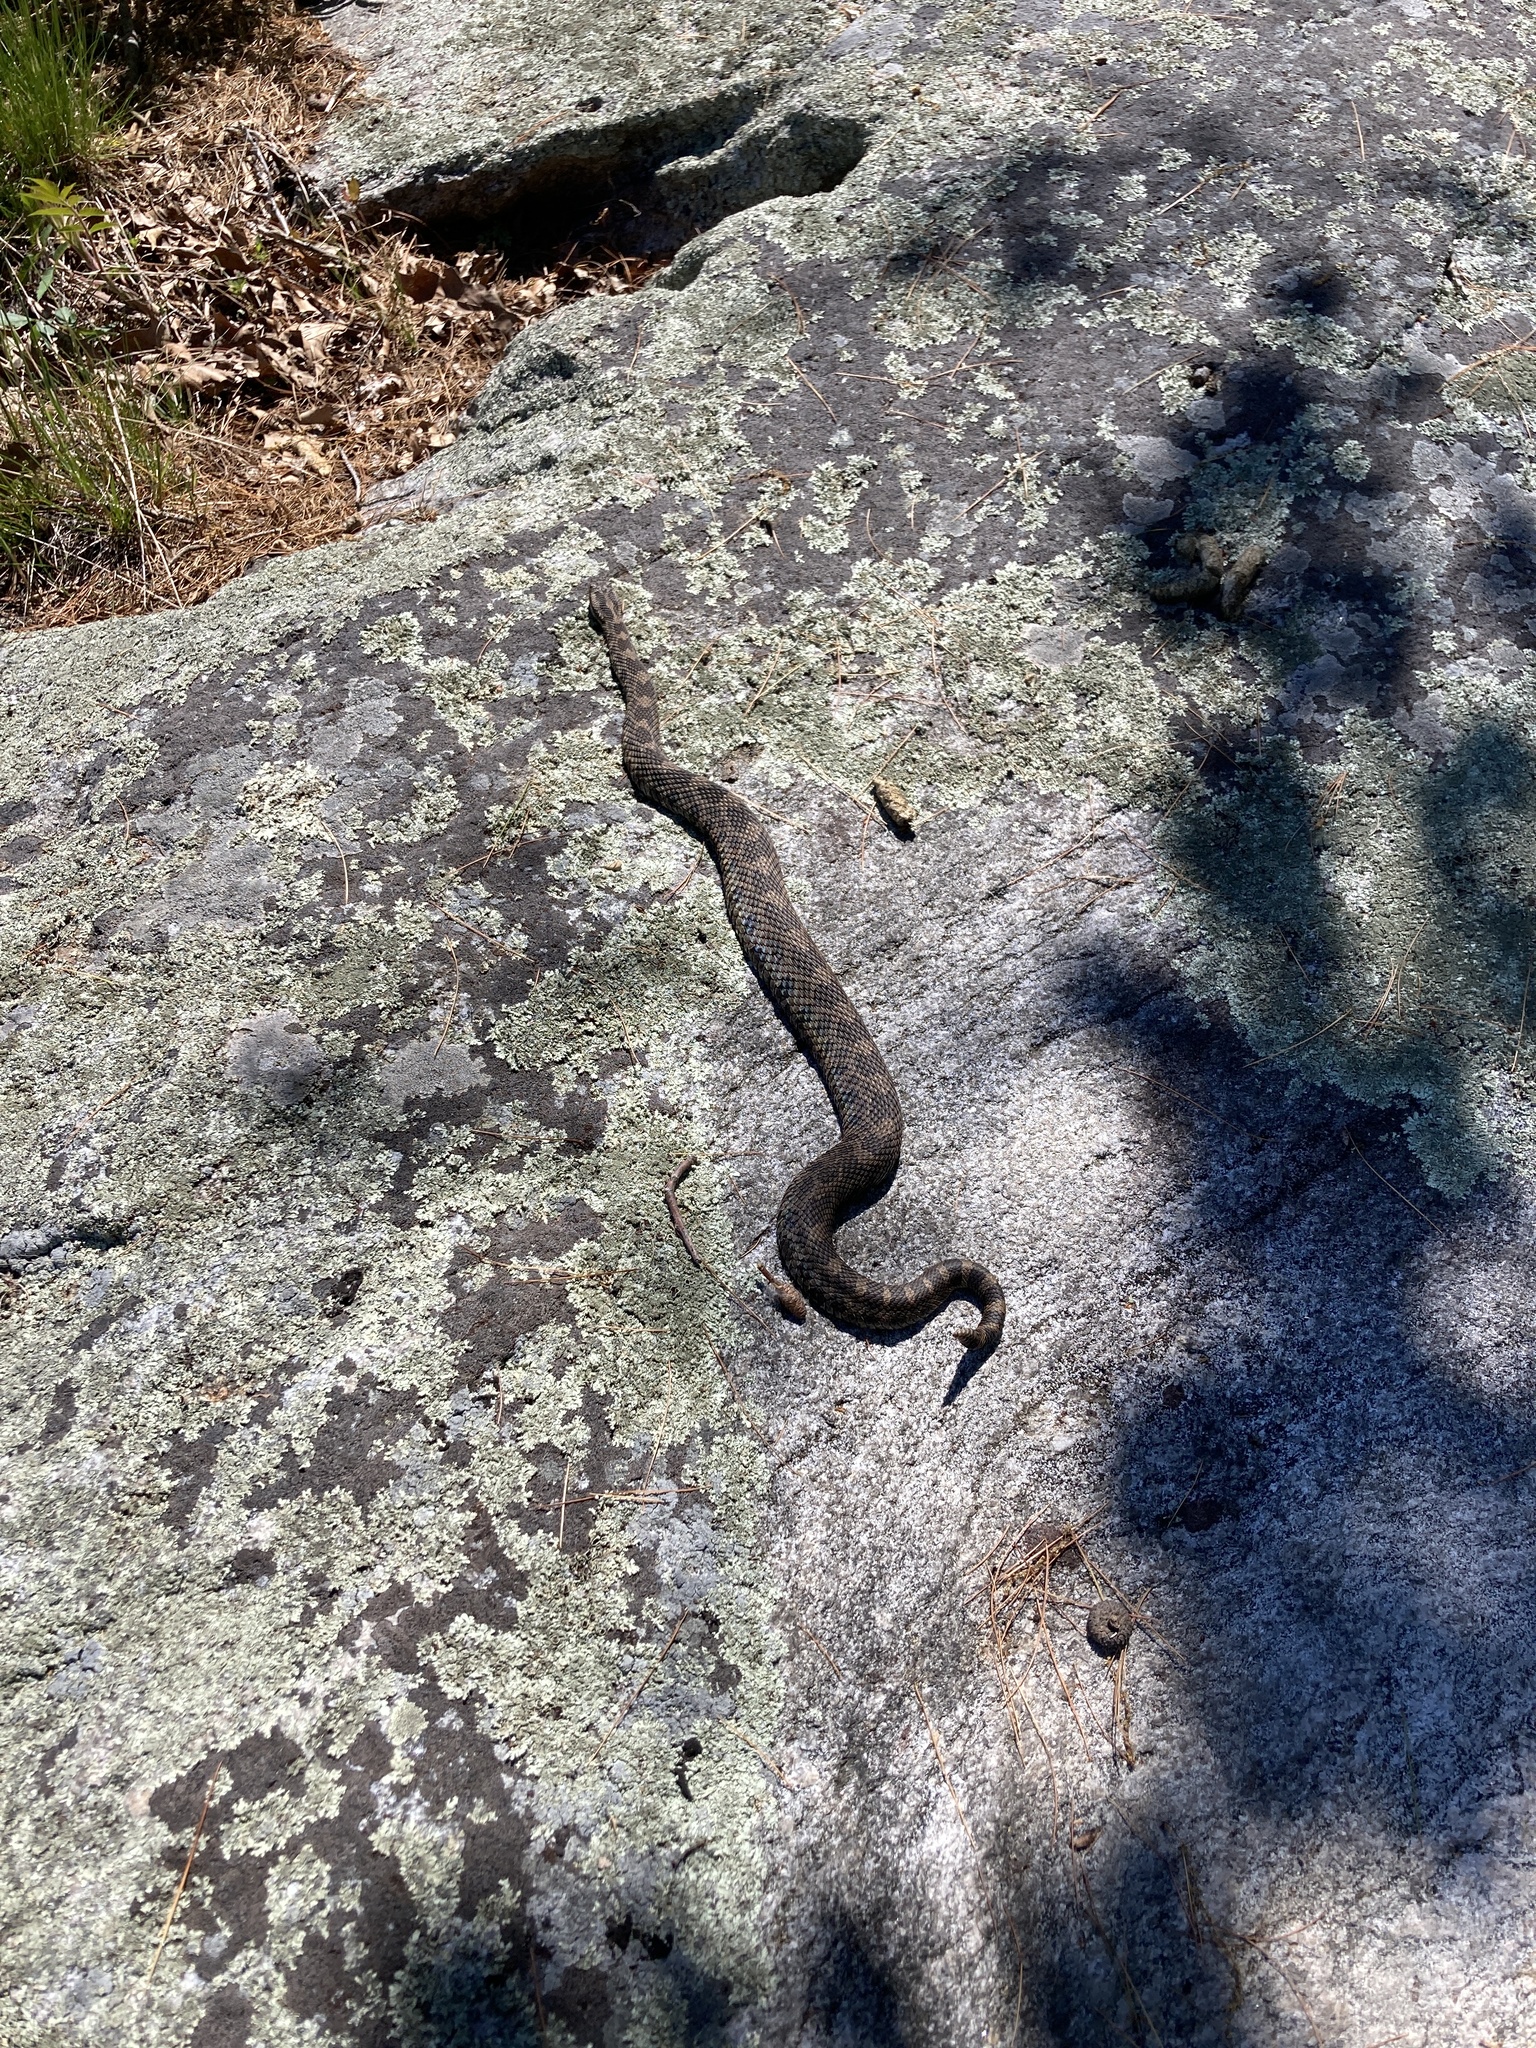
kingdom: Animalia
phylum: Chordata
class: Squamata
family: Viperidae
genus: Sistrurus
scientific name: Sistrurus catenatus
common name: Massasauga
